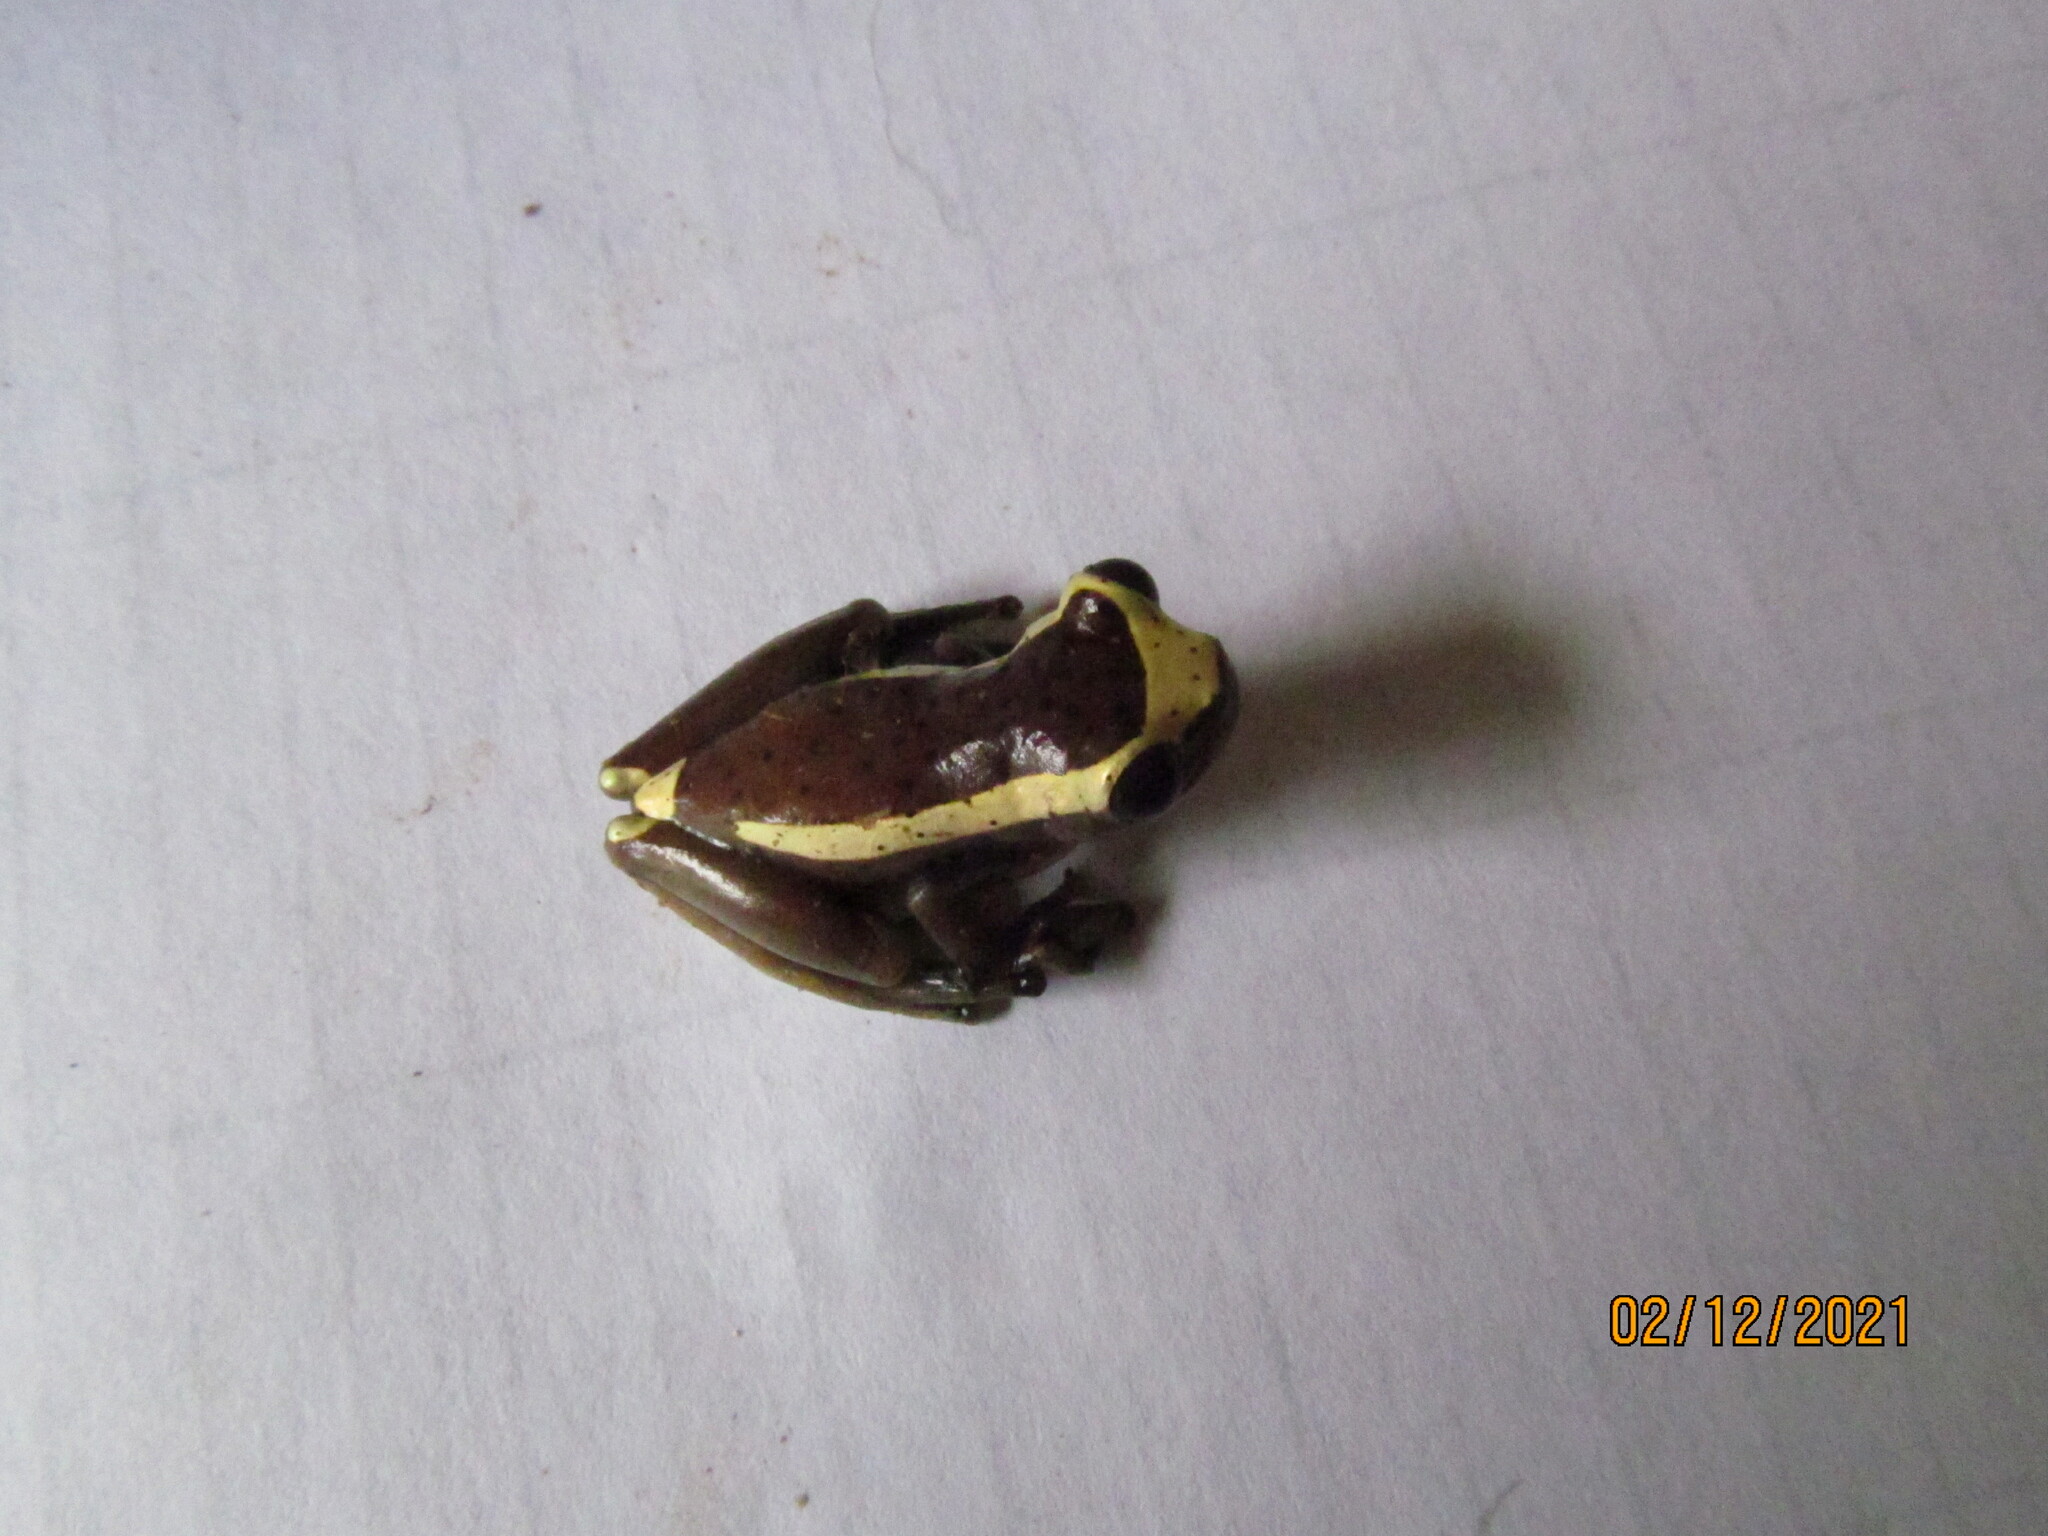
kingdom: Animalia
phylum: Chordata
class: Amphibia
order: Anura
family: Hylidae
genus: Dendropsophus
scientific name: Dendropsophus manonegra
